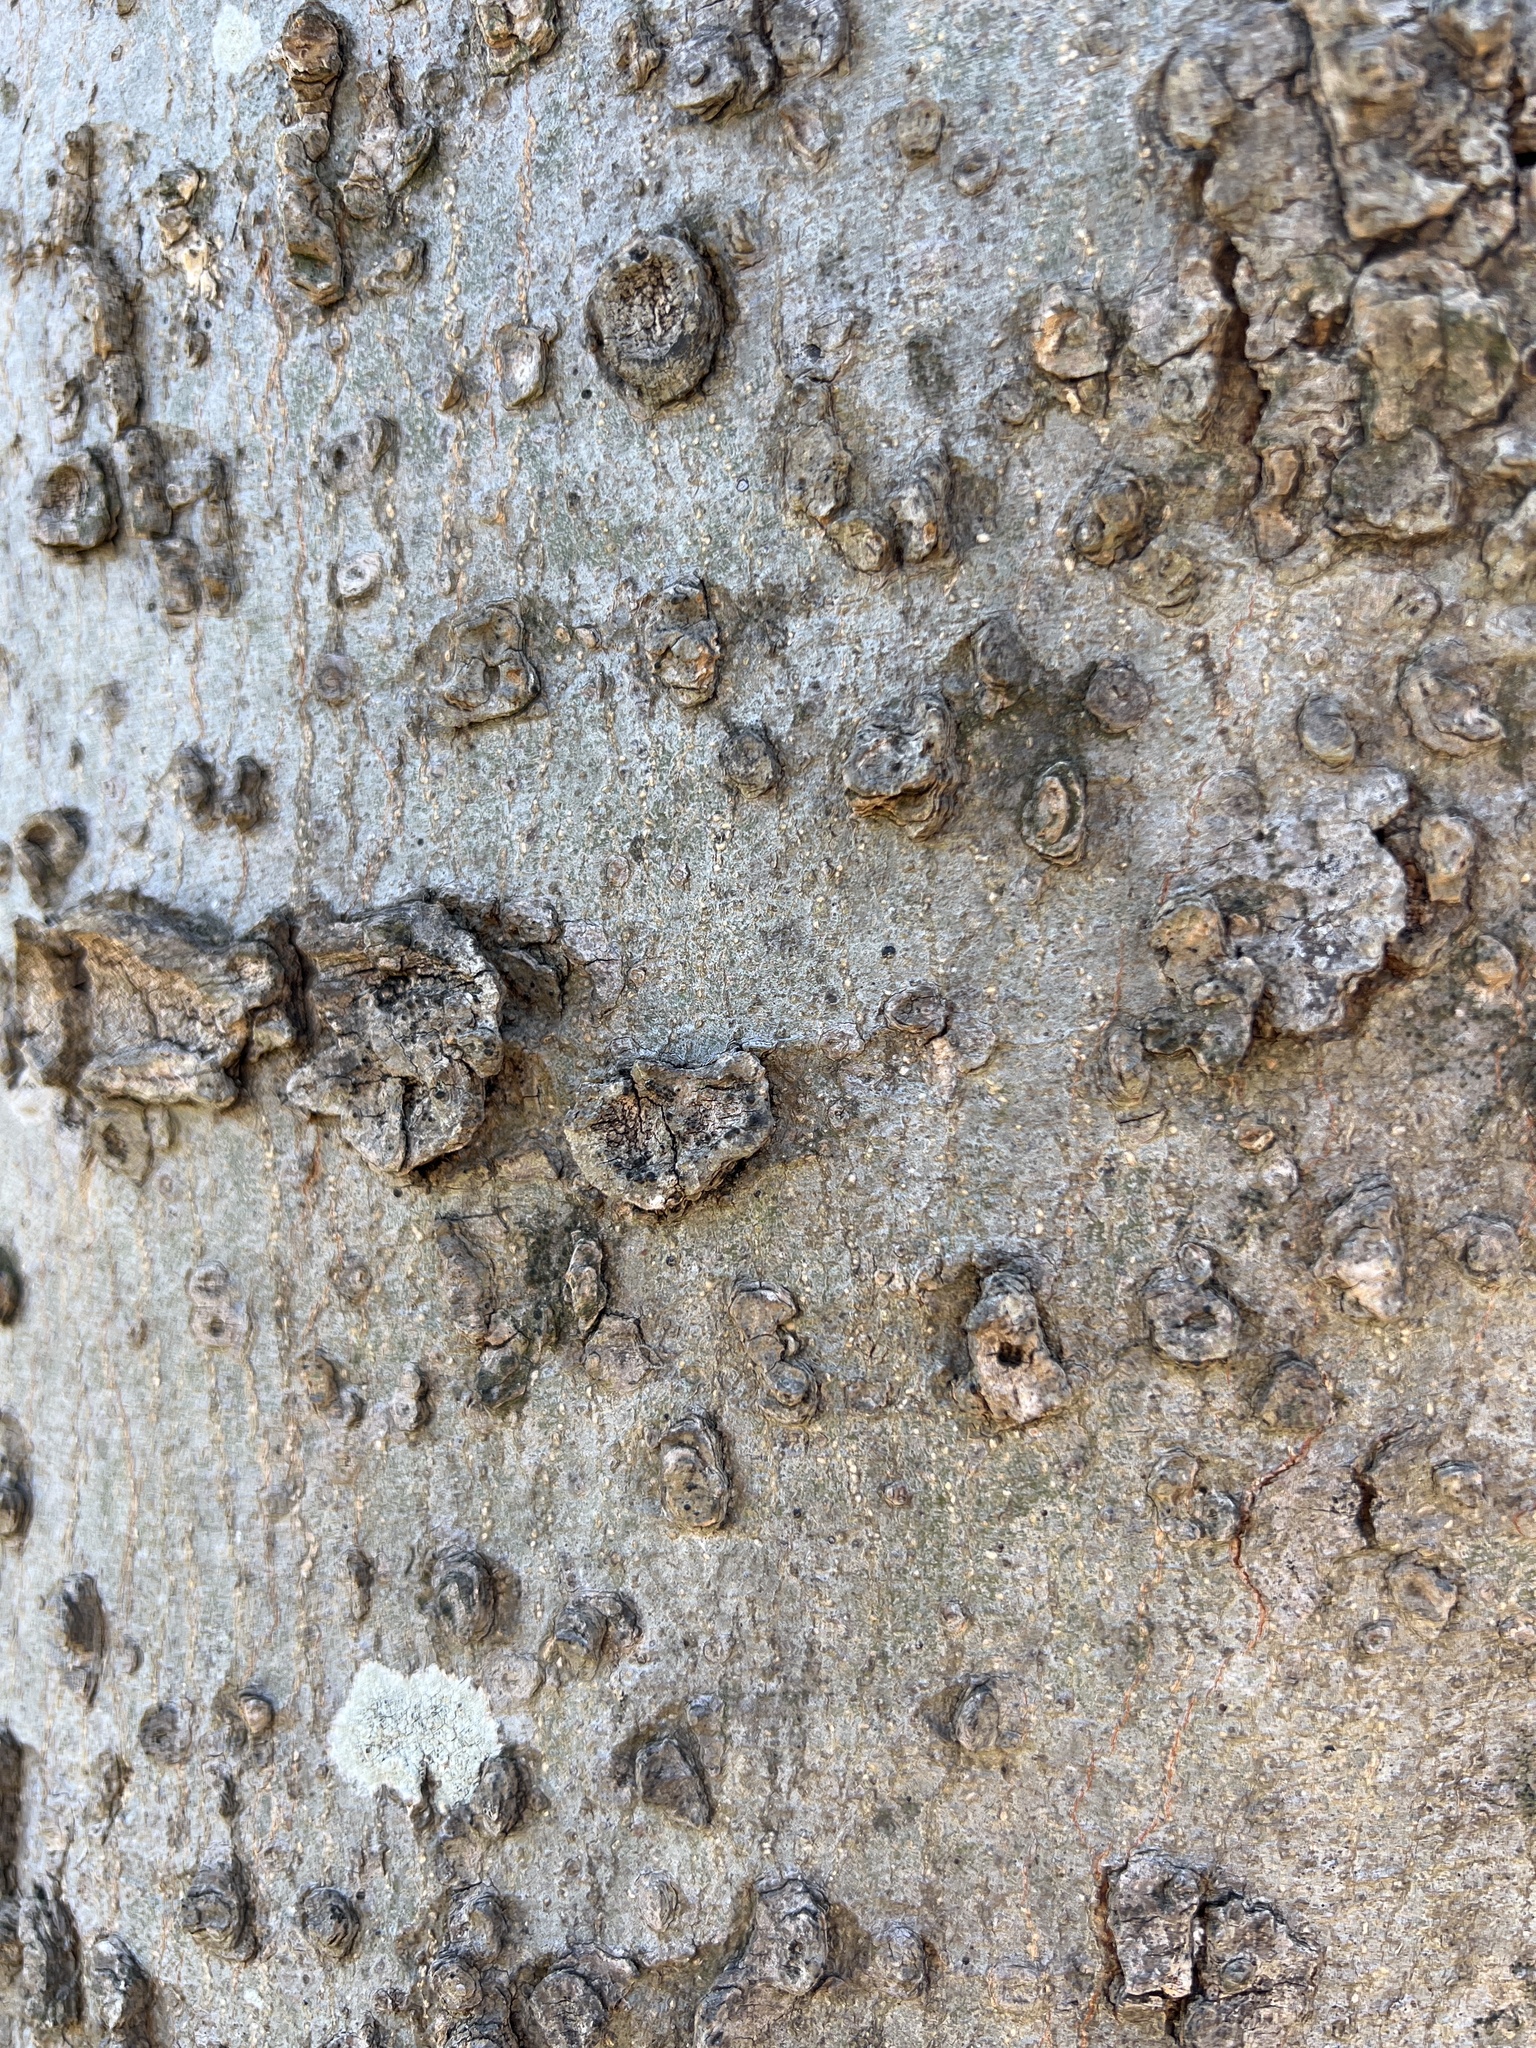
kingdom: Plantae
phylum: Tracheophyta
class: Magnoliopsida
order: Rosales
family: Cannabaceae
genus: Celtis
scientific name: Celtis laevigata
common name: Sugarberry
